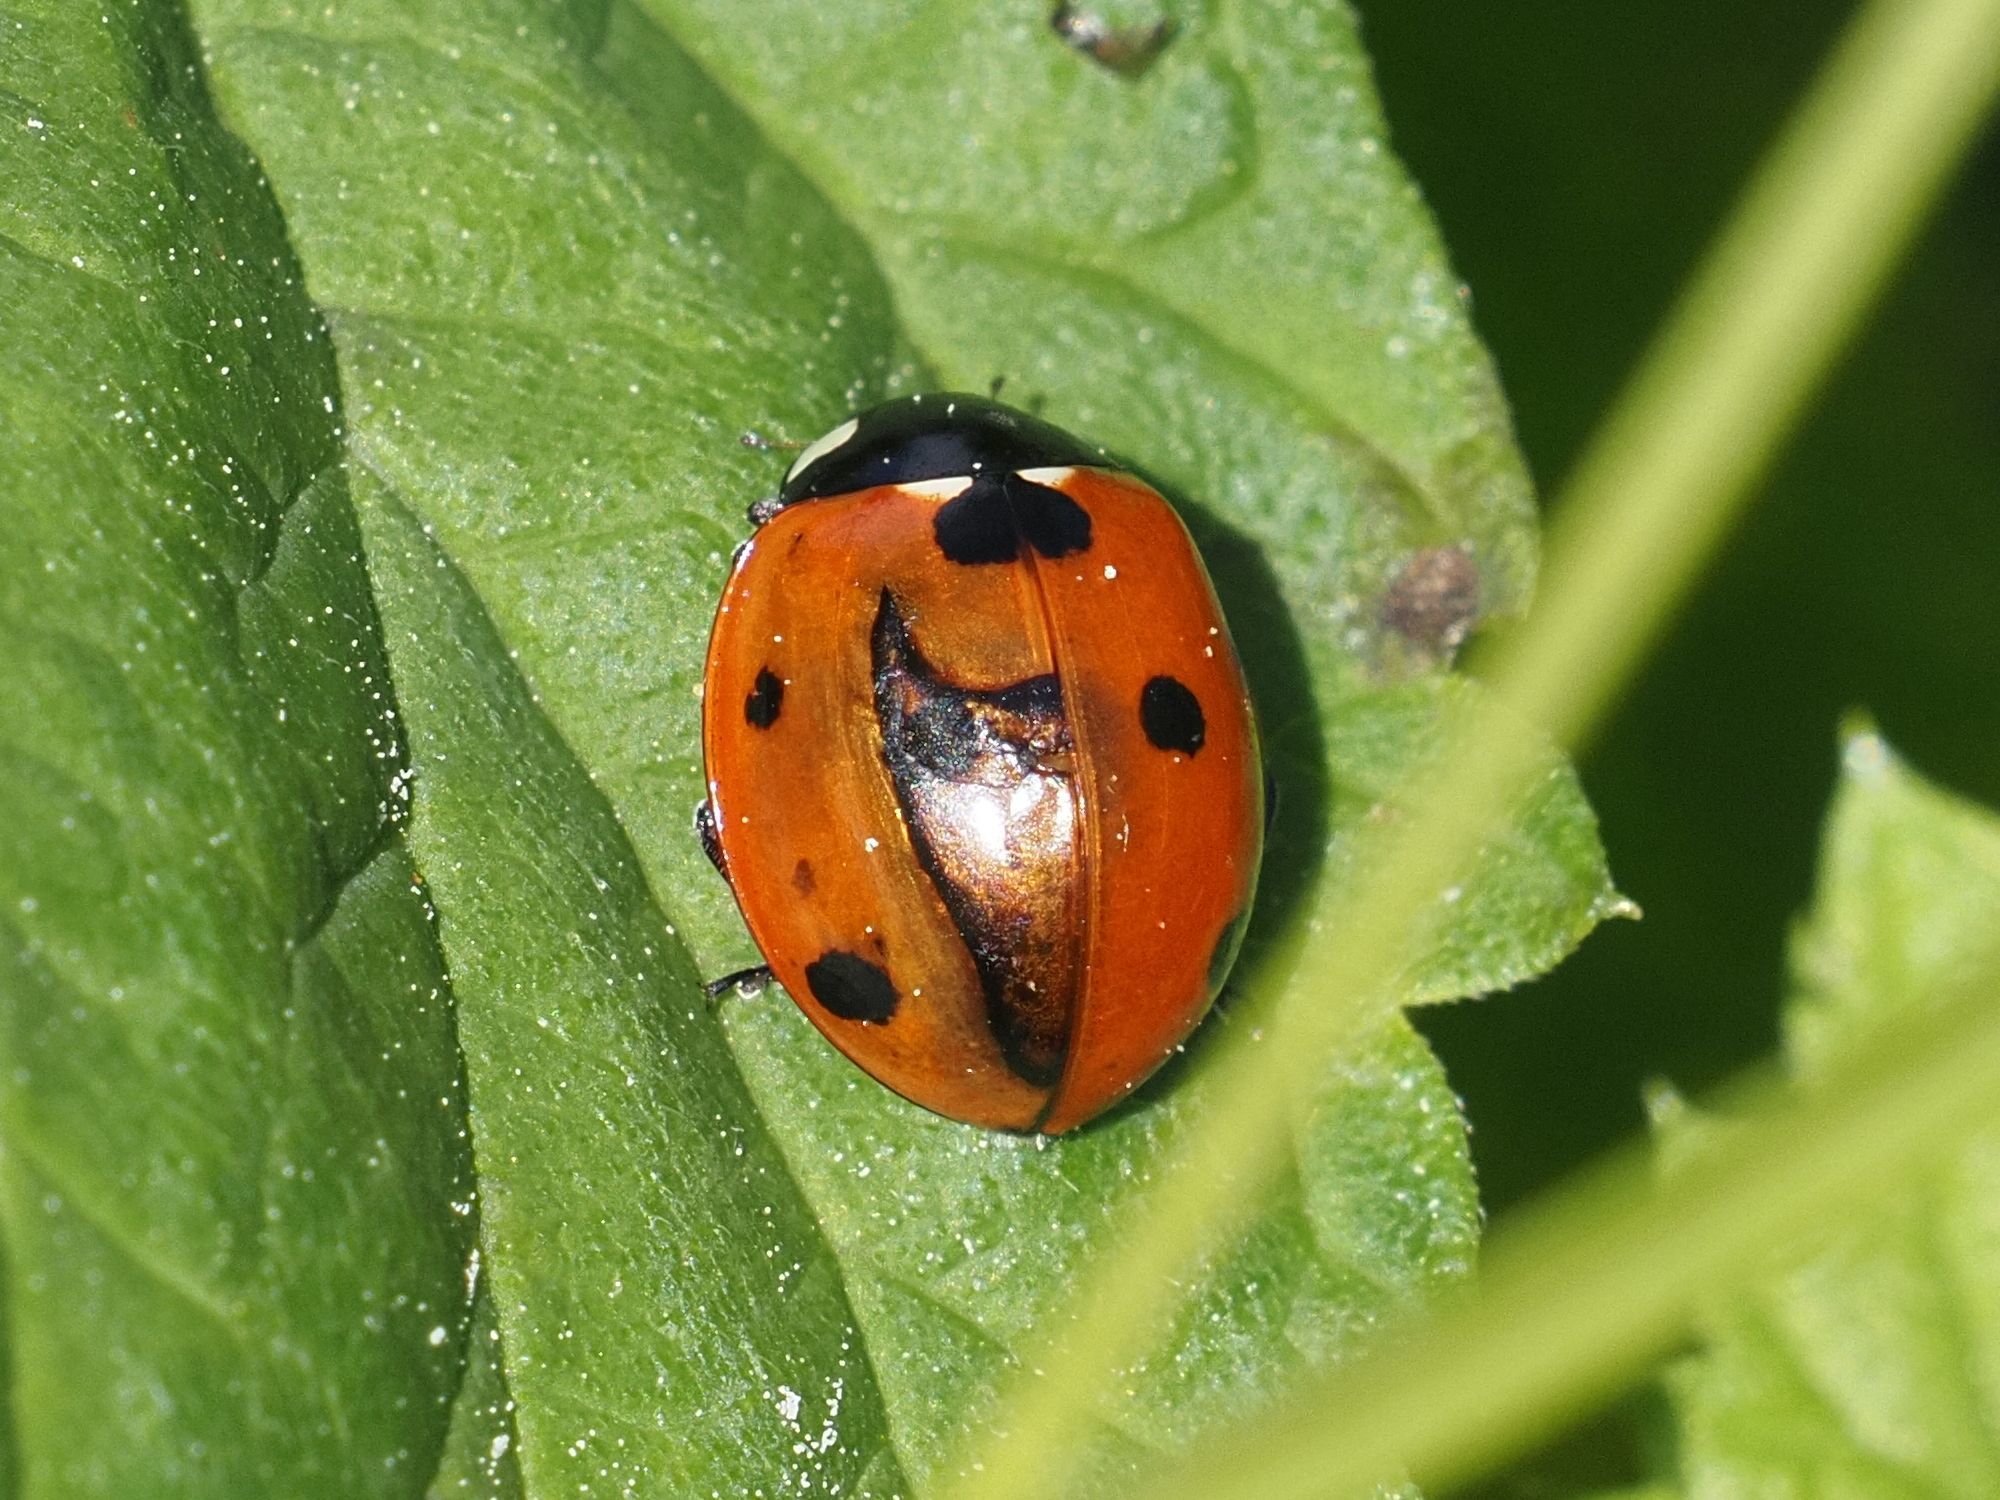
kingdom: Animalia
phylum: Arthropoda
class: Insecta
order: Coleoptera
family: Coccinellidae
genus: Coccinella
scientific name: Coccinella septempunctata
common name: Sevenspotted lady beetle
